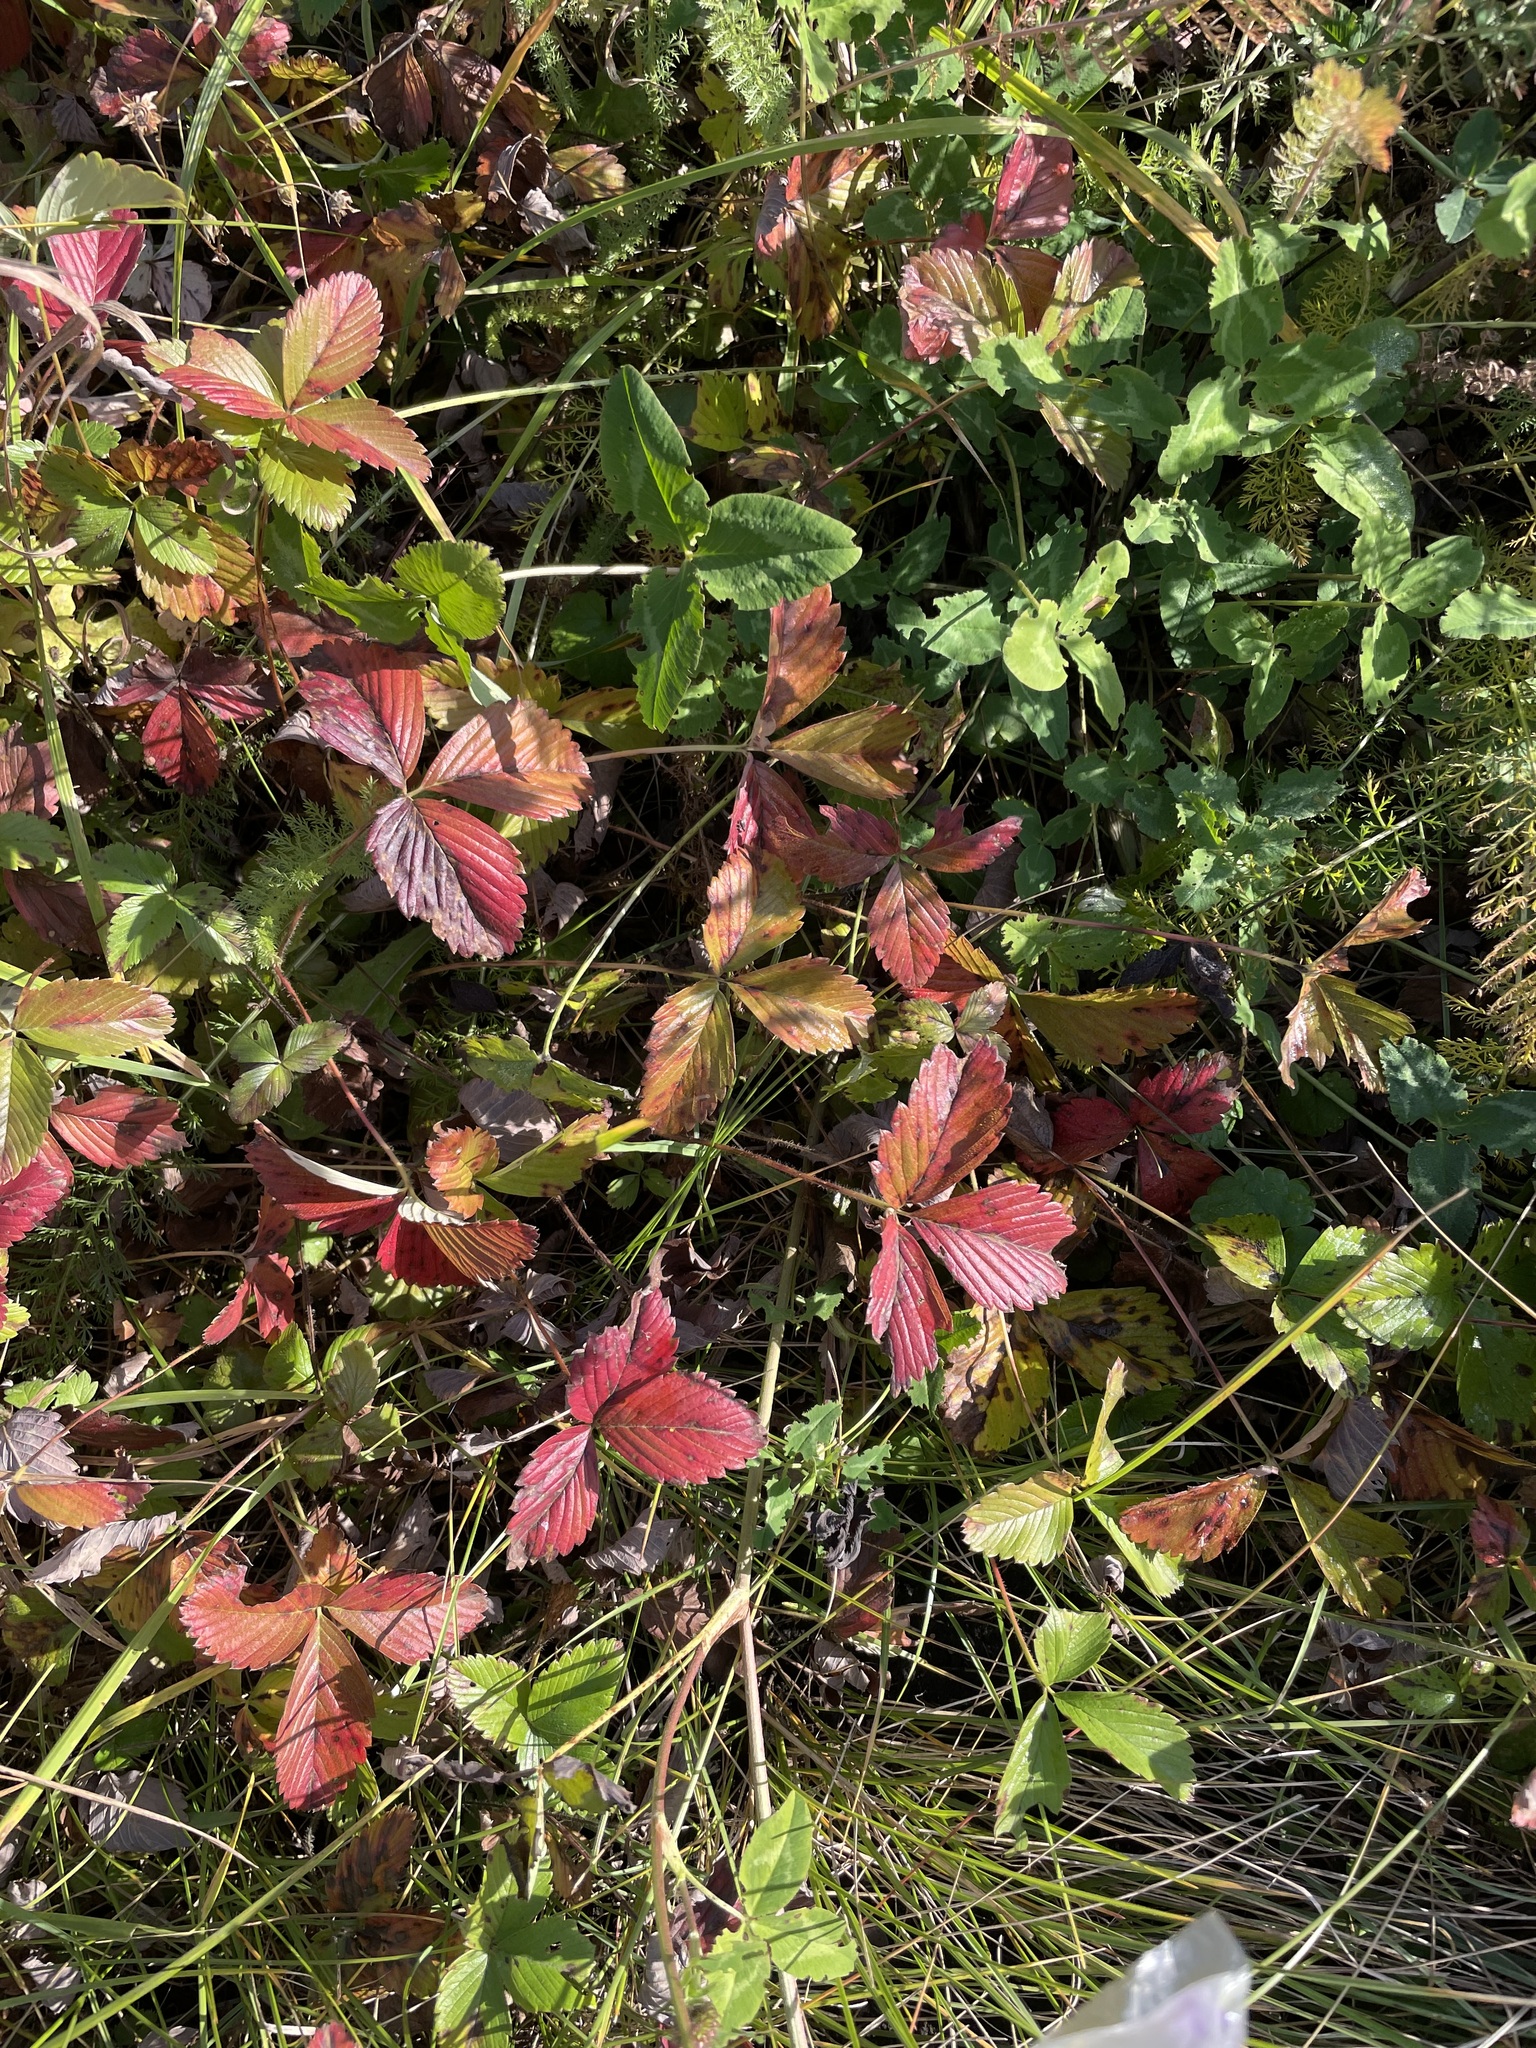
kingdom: Plantae
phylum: Tracheophyta
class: Magnoliopsida
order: Rosales
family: Rosaceae
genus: Fragaria
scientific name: Fragaria viridis
